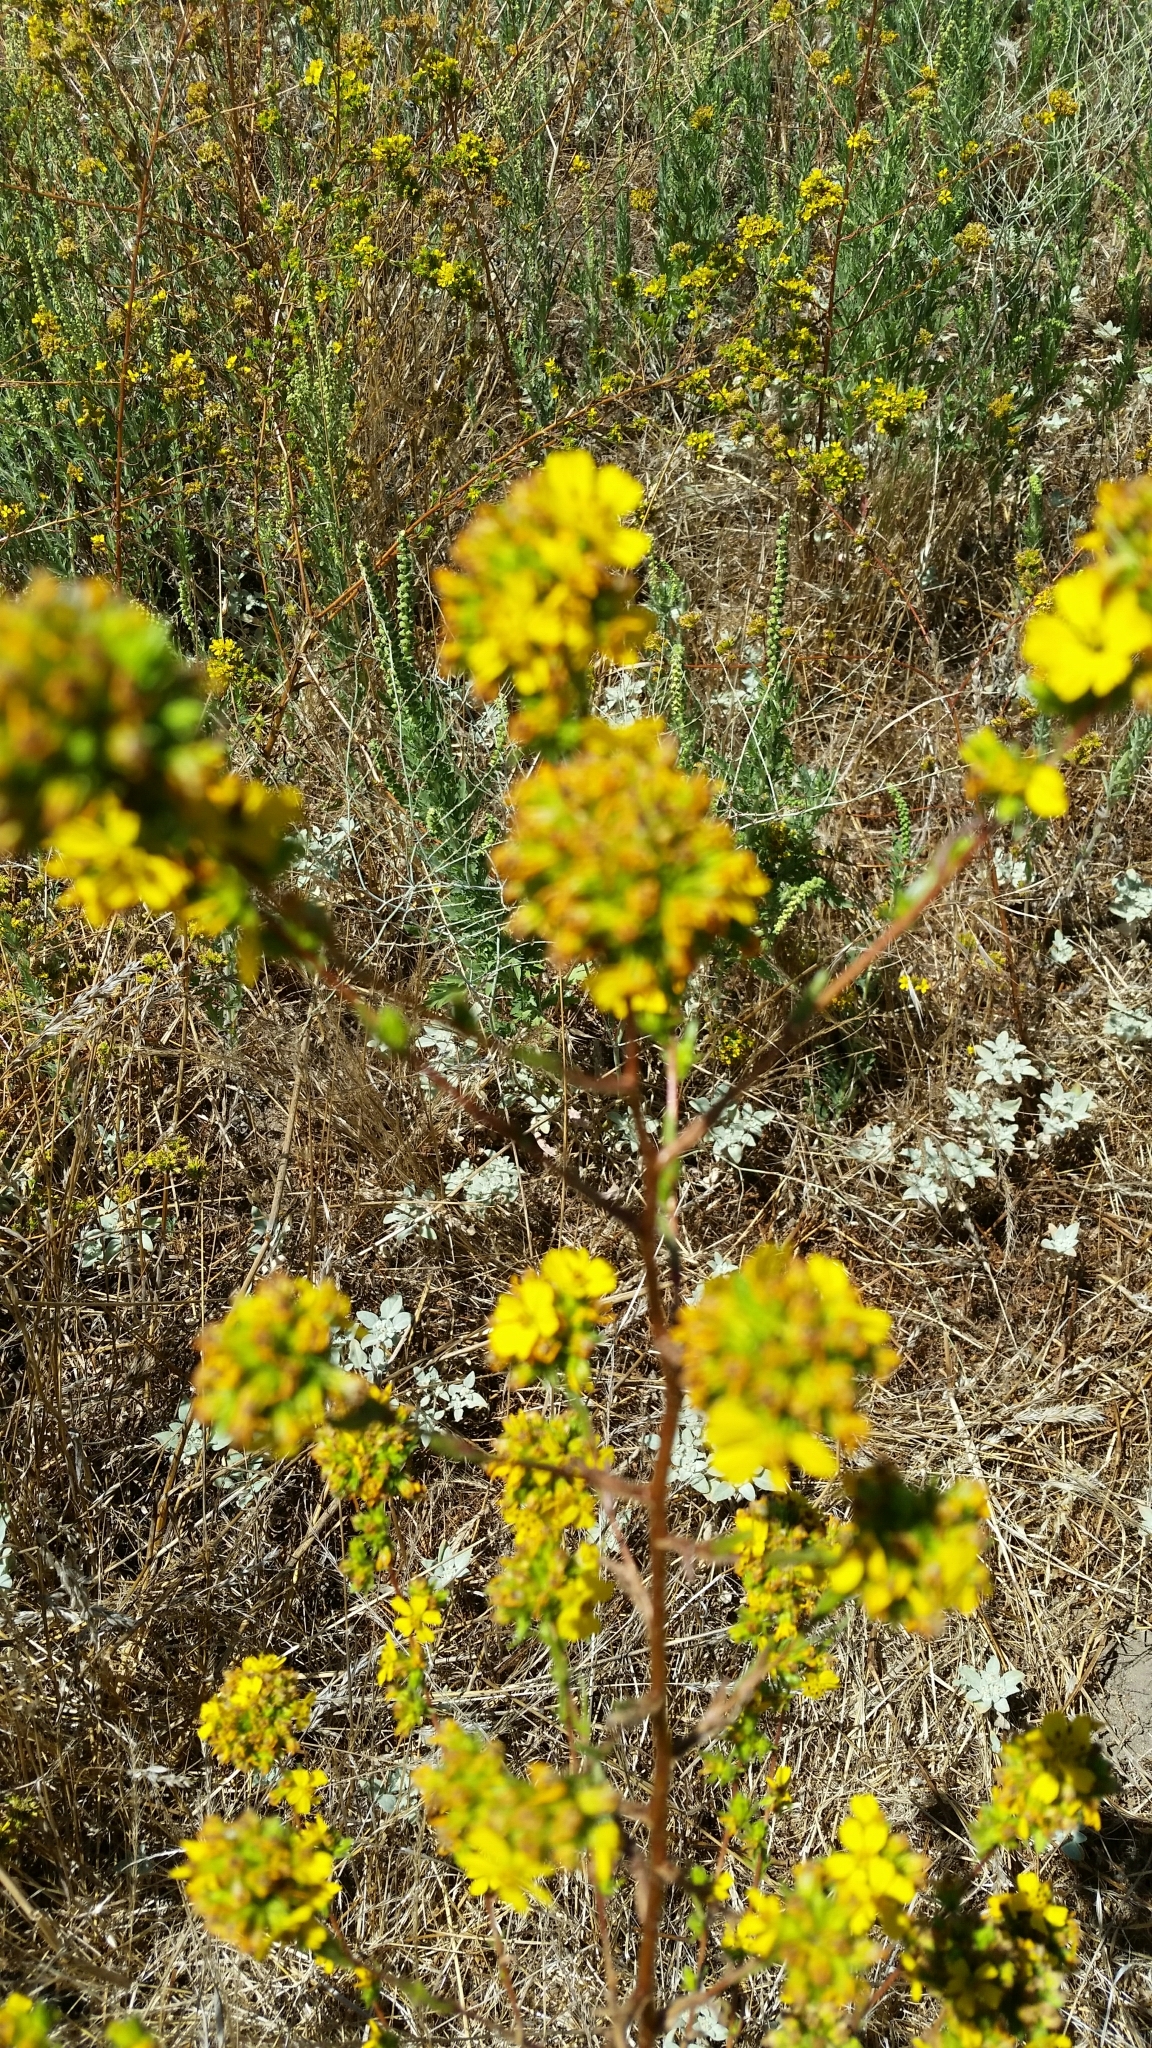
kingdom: Plantae
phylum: Tracheophyta
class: Magnoliopsida
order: Asterales
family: Asteraceae
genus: Deinandra
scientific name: Deinandra fasciculata
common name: Clustered tarweed
